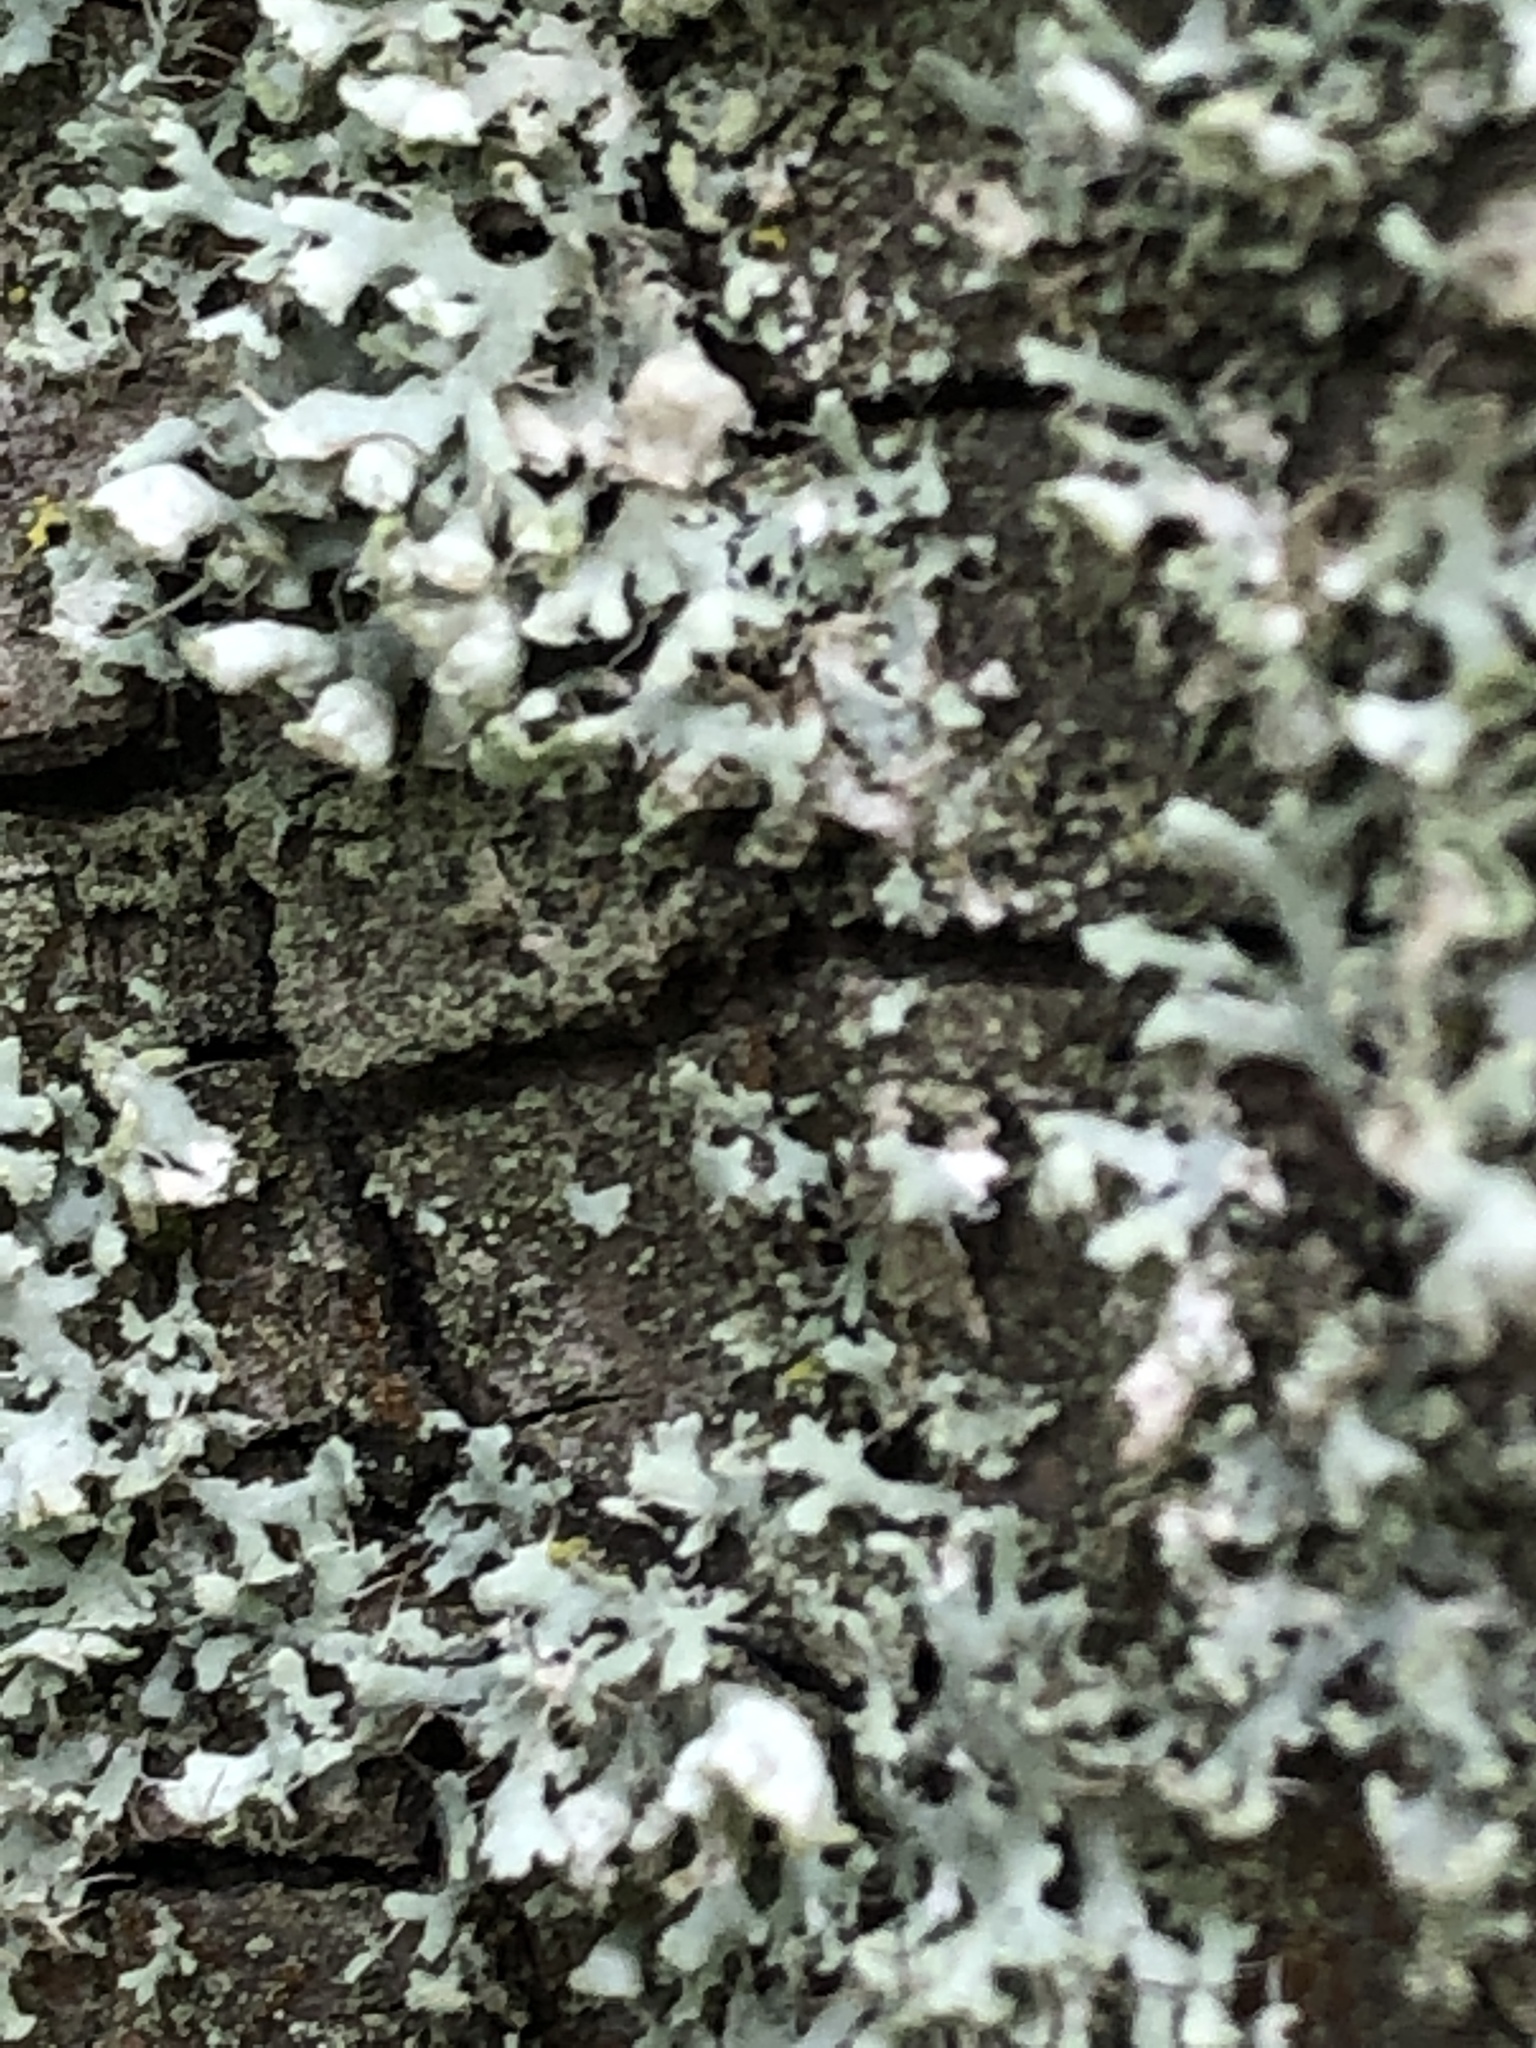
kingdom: Fungi
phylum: Ascomycota
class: Lecanoromycetes
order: Caliciales
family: Physciaceae
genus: Physcia
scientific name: Physcia adscendens
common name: Hooded rosette lichen
